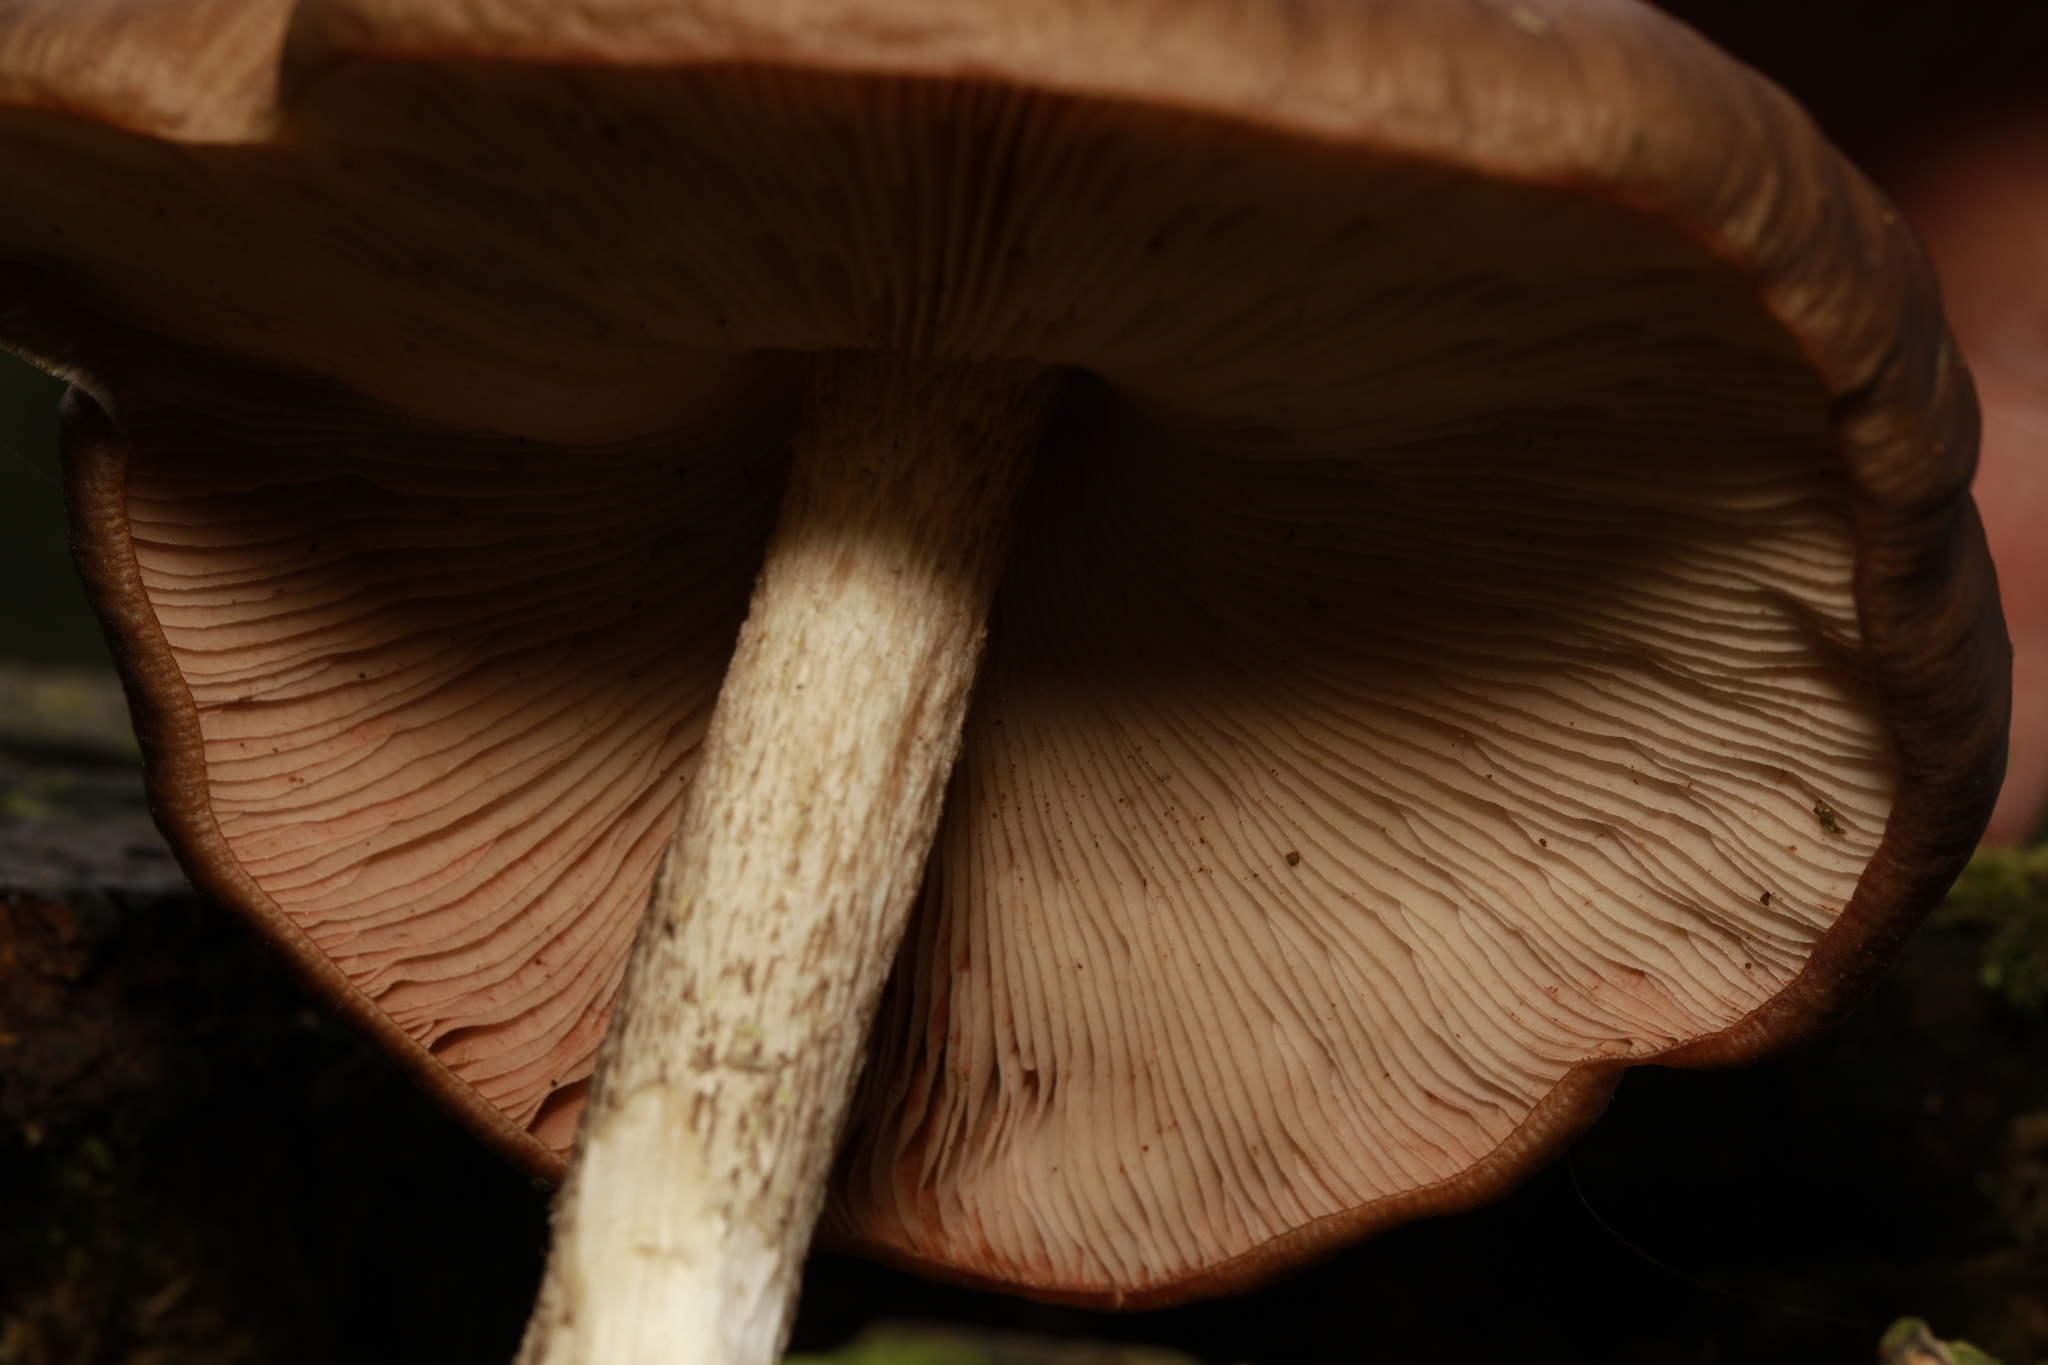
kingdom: Fungi
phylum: Basidiomycota
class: Agaricomycetes
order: Agaricales
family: Pluteaceae
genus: Pluteus
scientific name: Pluteus cervinus
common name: Deer shield
